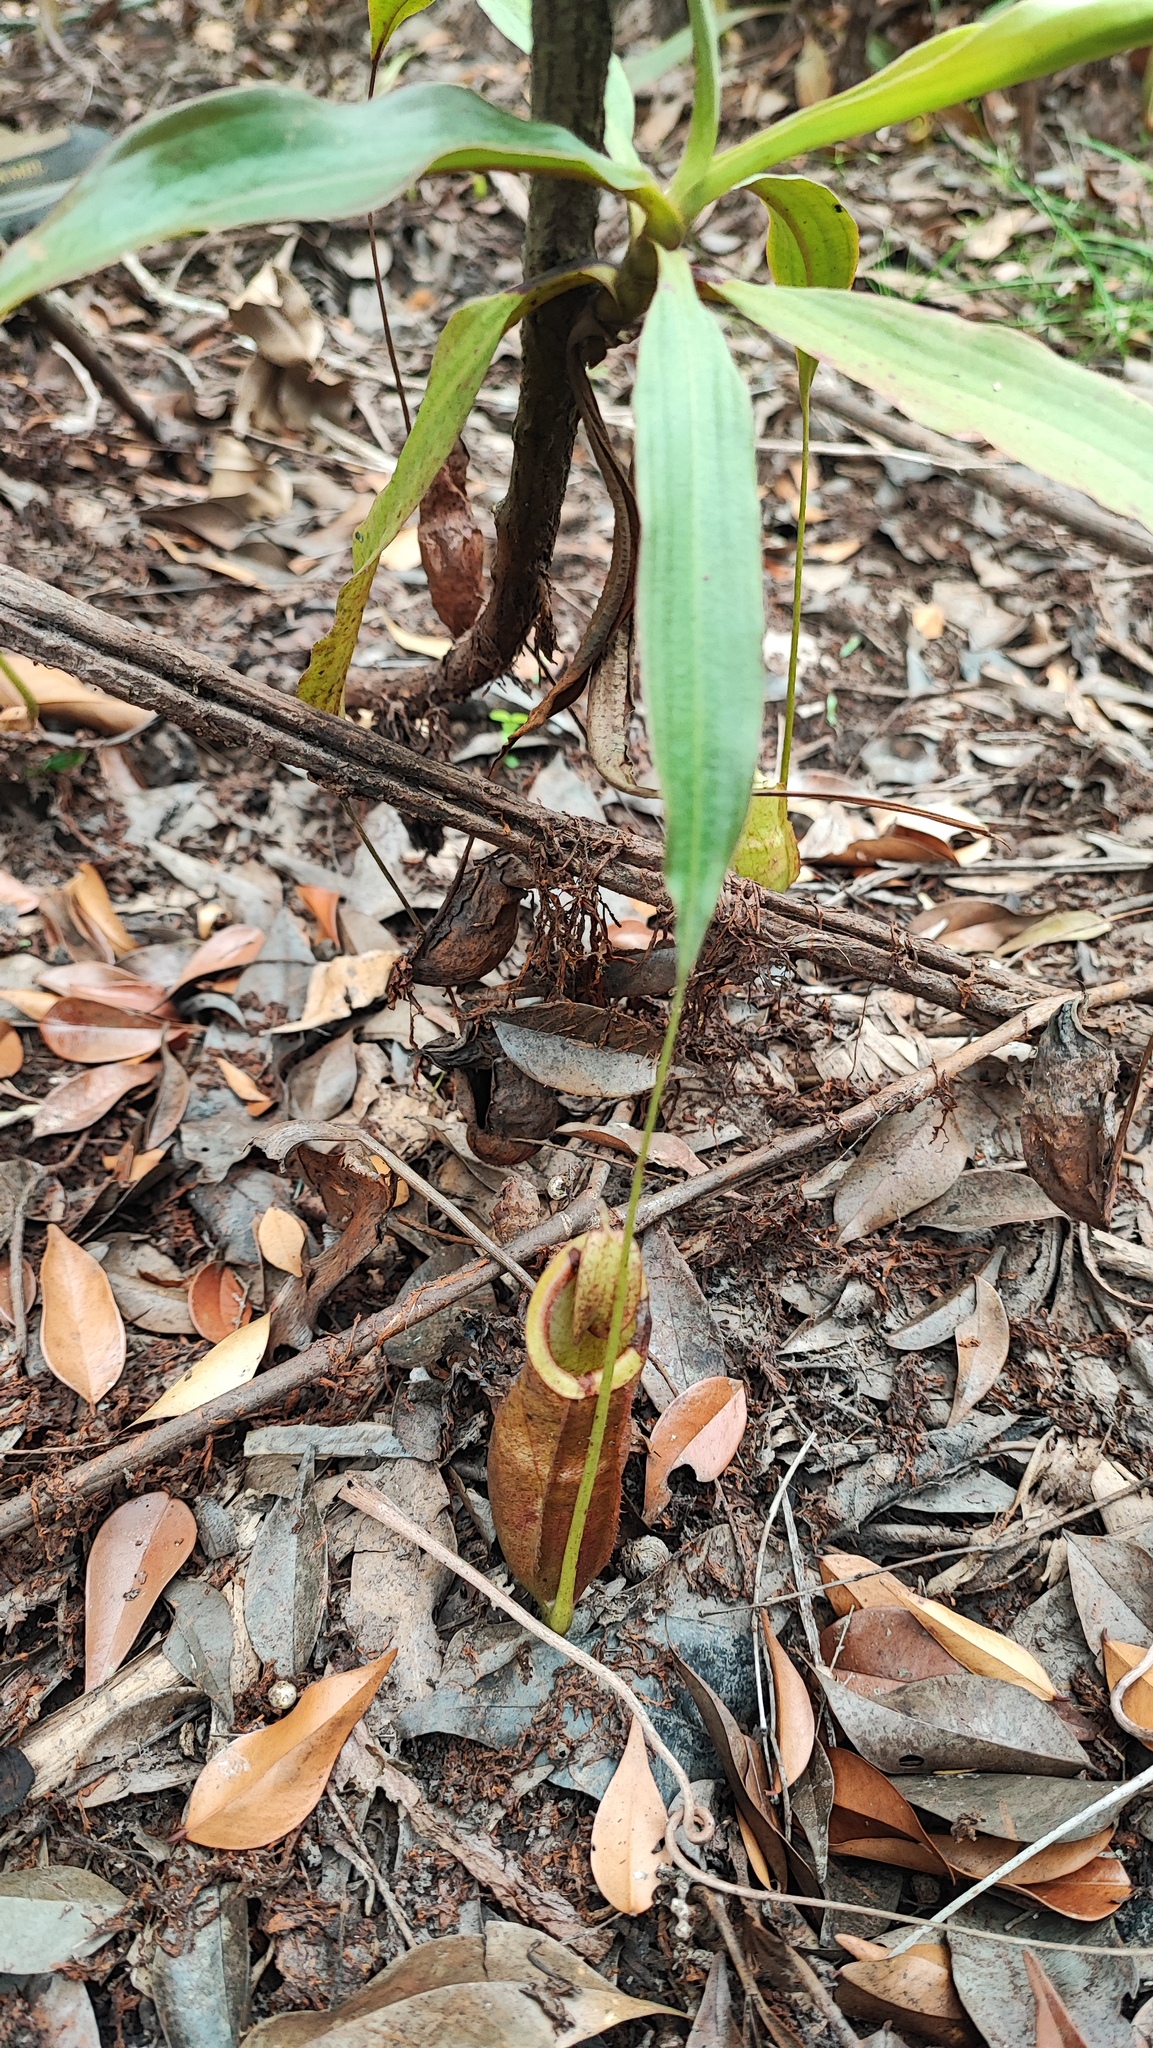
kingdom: Plantae
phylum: Tracheophyta
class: Magnoliopsida
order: Caryophyllales
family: Nepenthaceae
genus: Nepenthes
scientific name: Nepenthes mirabilis
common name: Tropical pitcherplant
